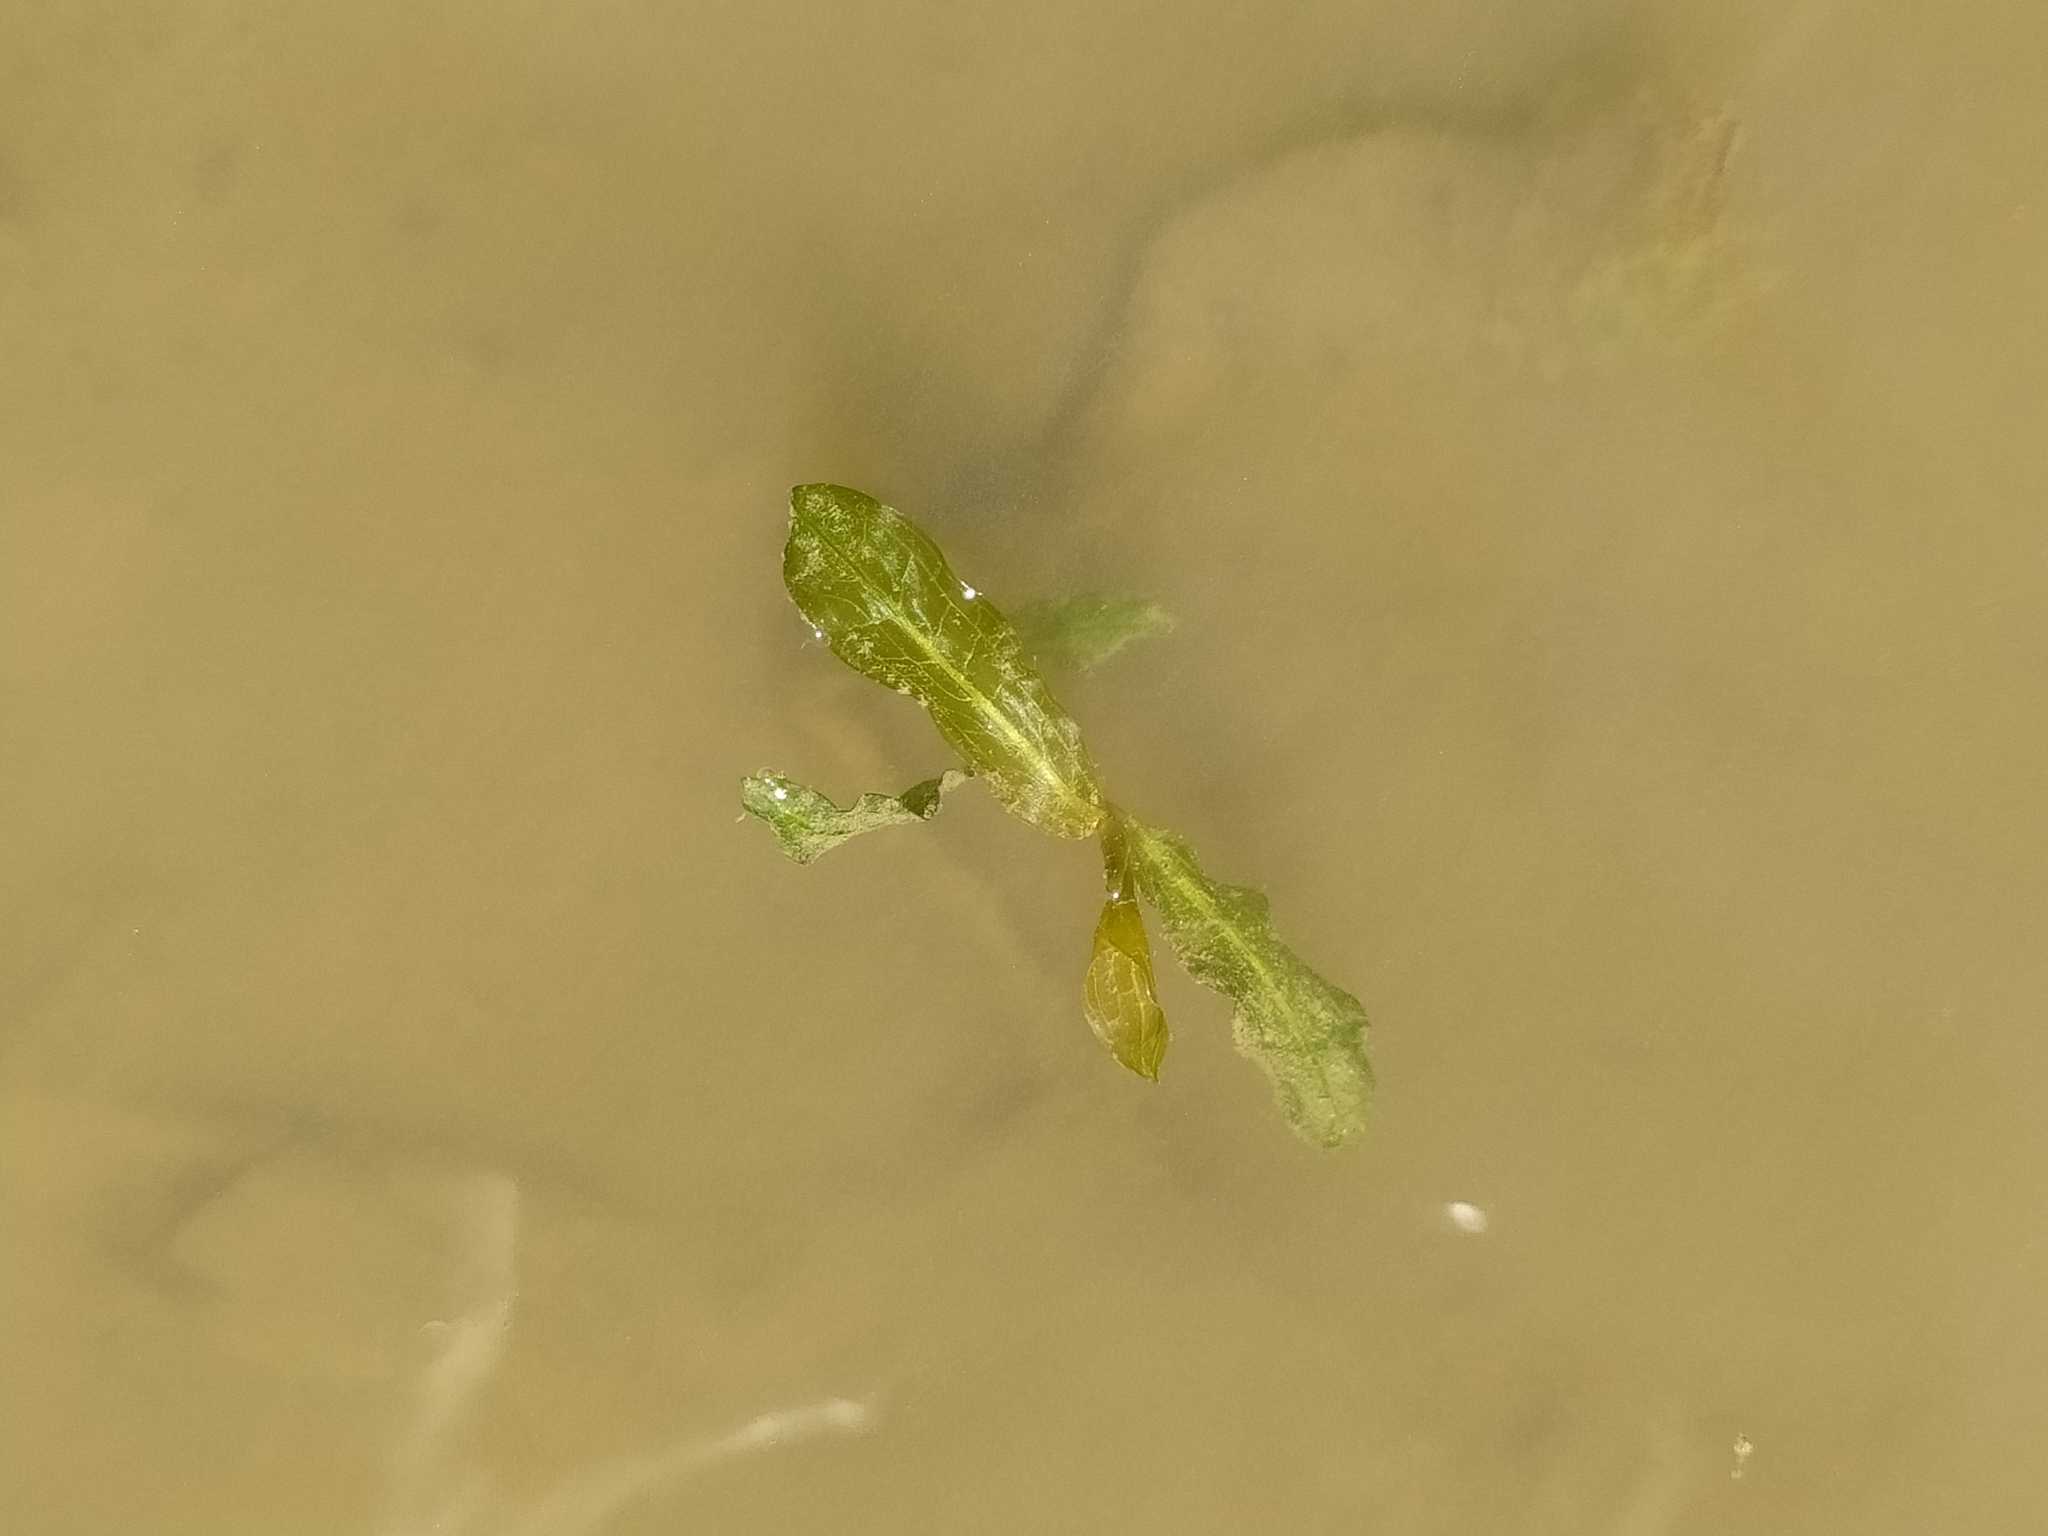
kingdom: Plantae
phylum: Tracheophyta
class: Liliopsida
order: Alismatales
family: Potamogetonaceae
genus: Potamogeton
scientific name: Potamogeton crispus
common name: Curled pondweed
